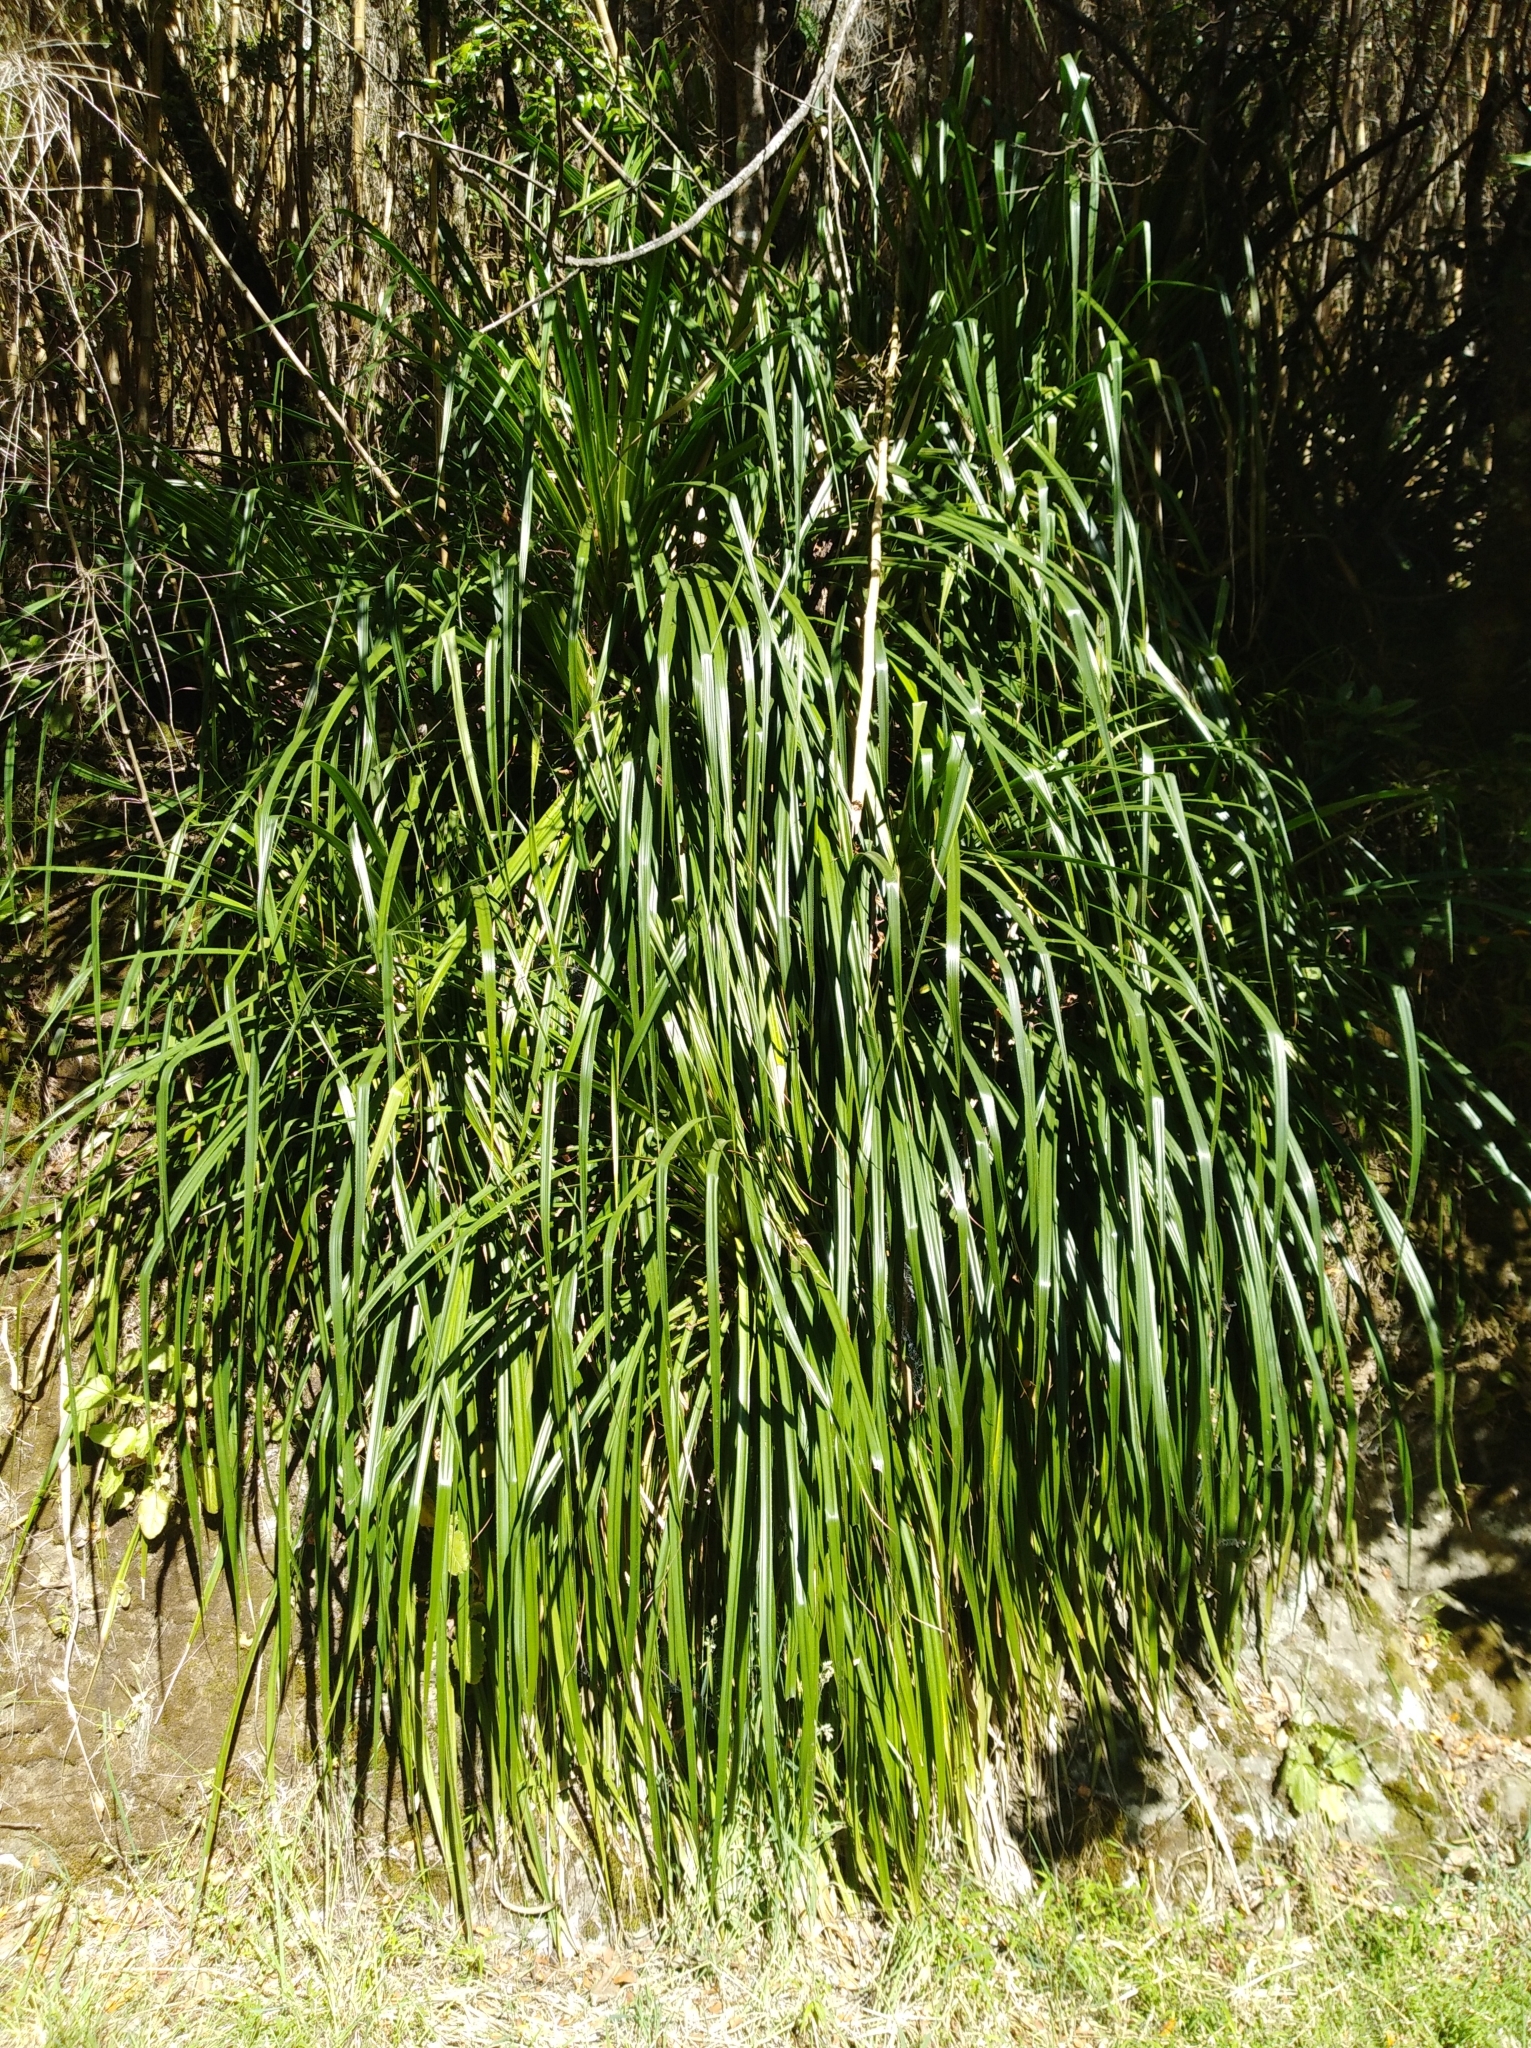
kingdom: Plantae
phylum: Tracheophyta
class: Liliopsida
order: Poales
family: Bromeliaceae
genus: Greigia
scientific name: Greigia sphacelata
